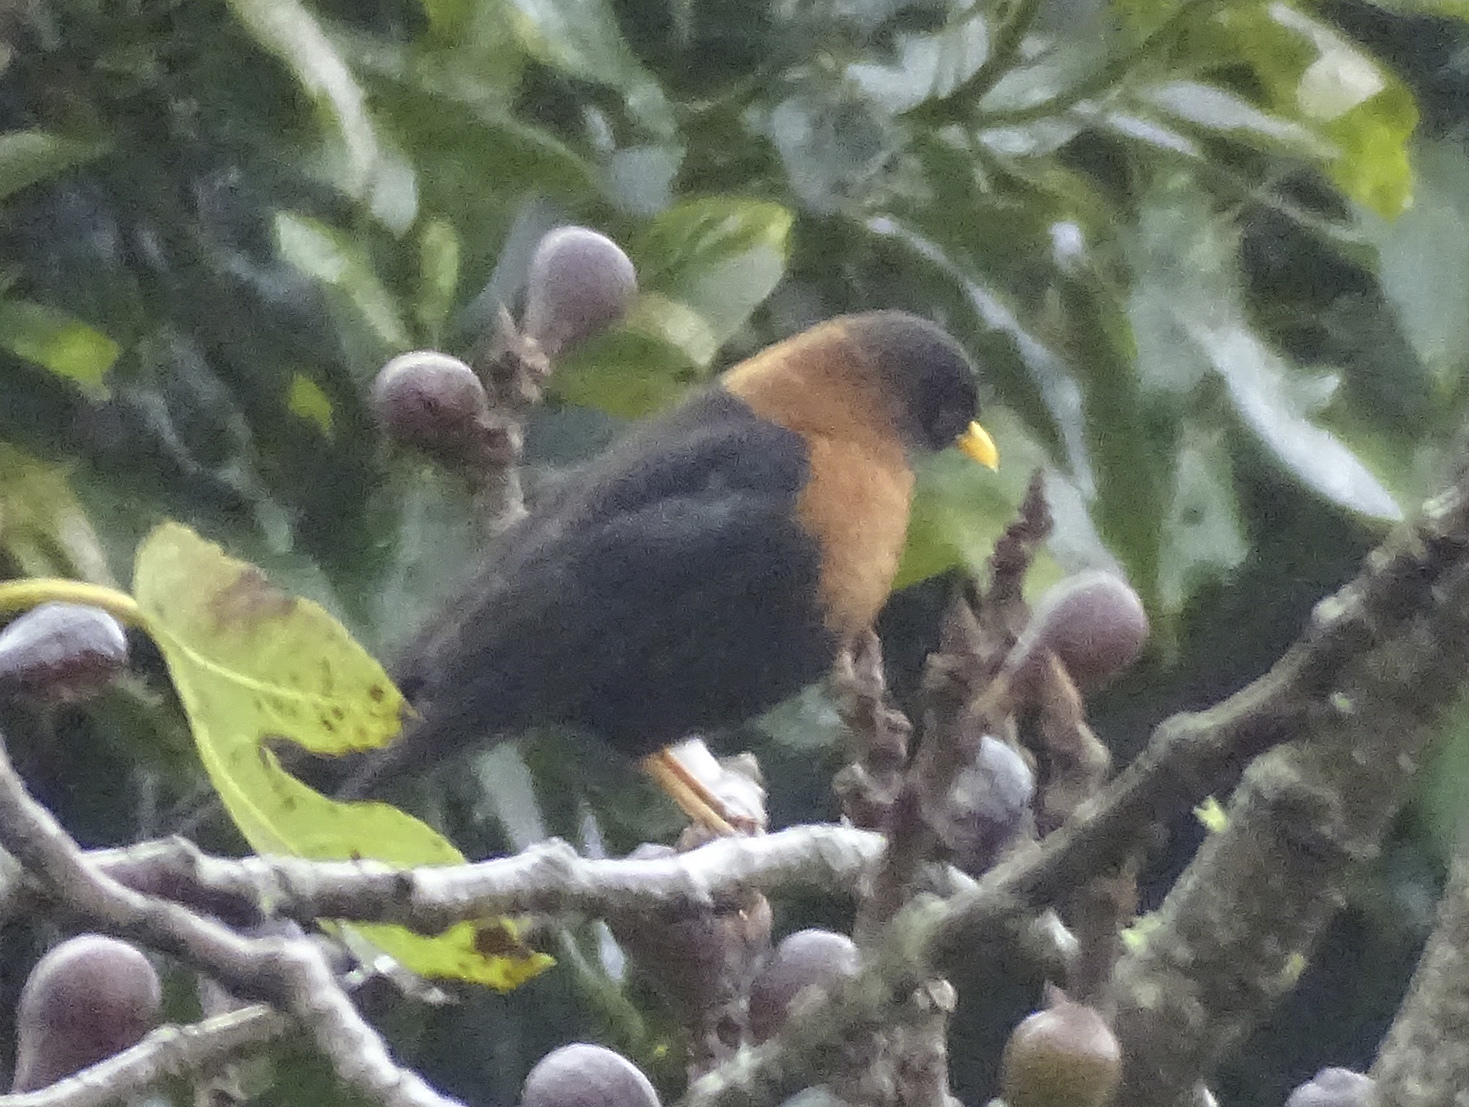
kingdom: Animalia
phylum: Chordata
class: Aves
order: Passeriformes
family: Turdidae
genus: Turdus
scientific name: Turdus rufitorques
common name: Rufous-collared thrush
